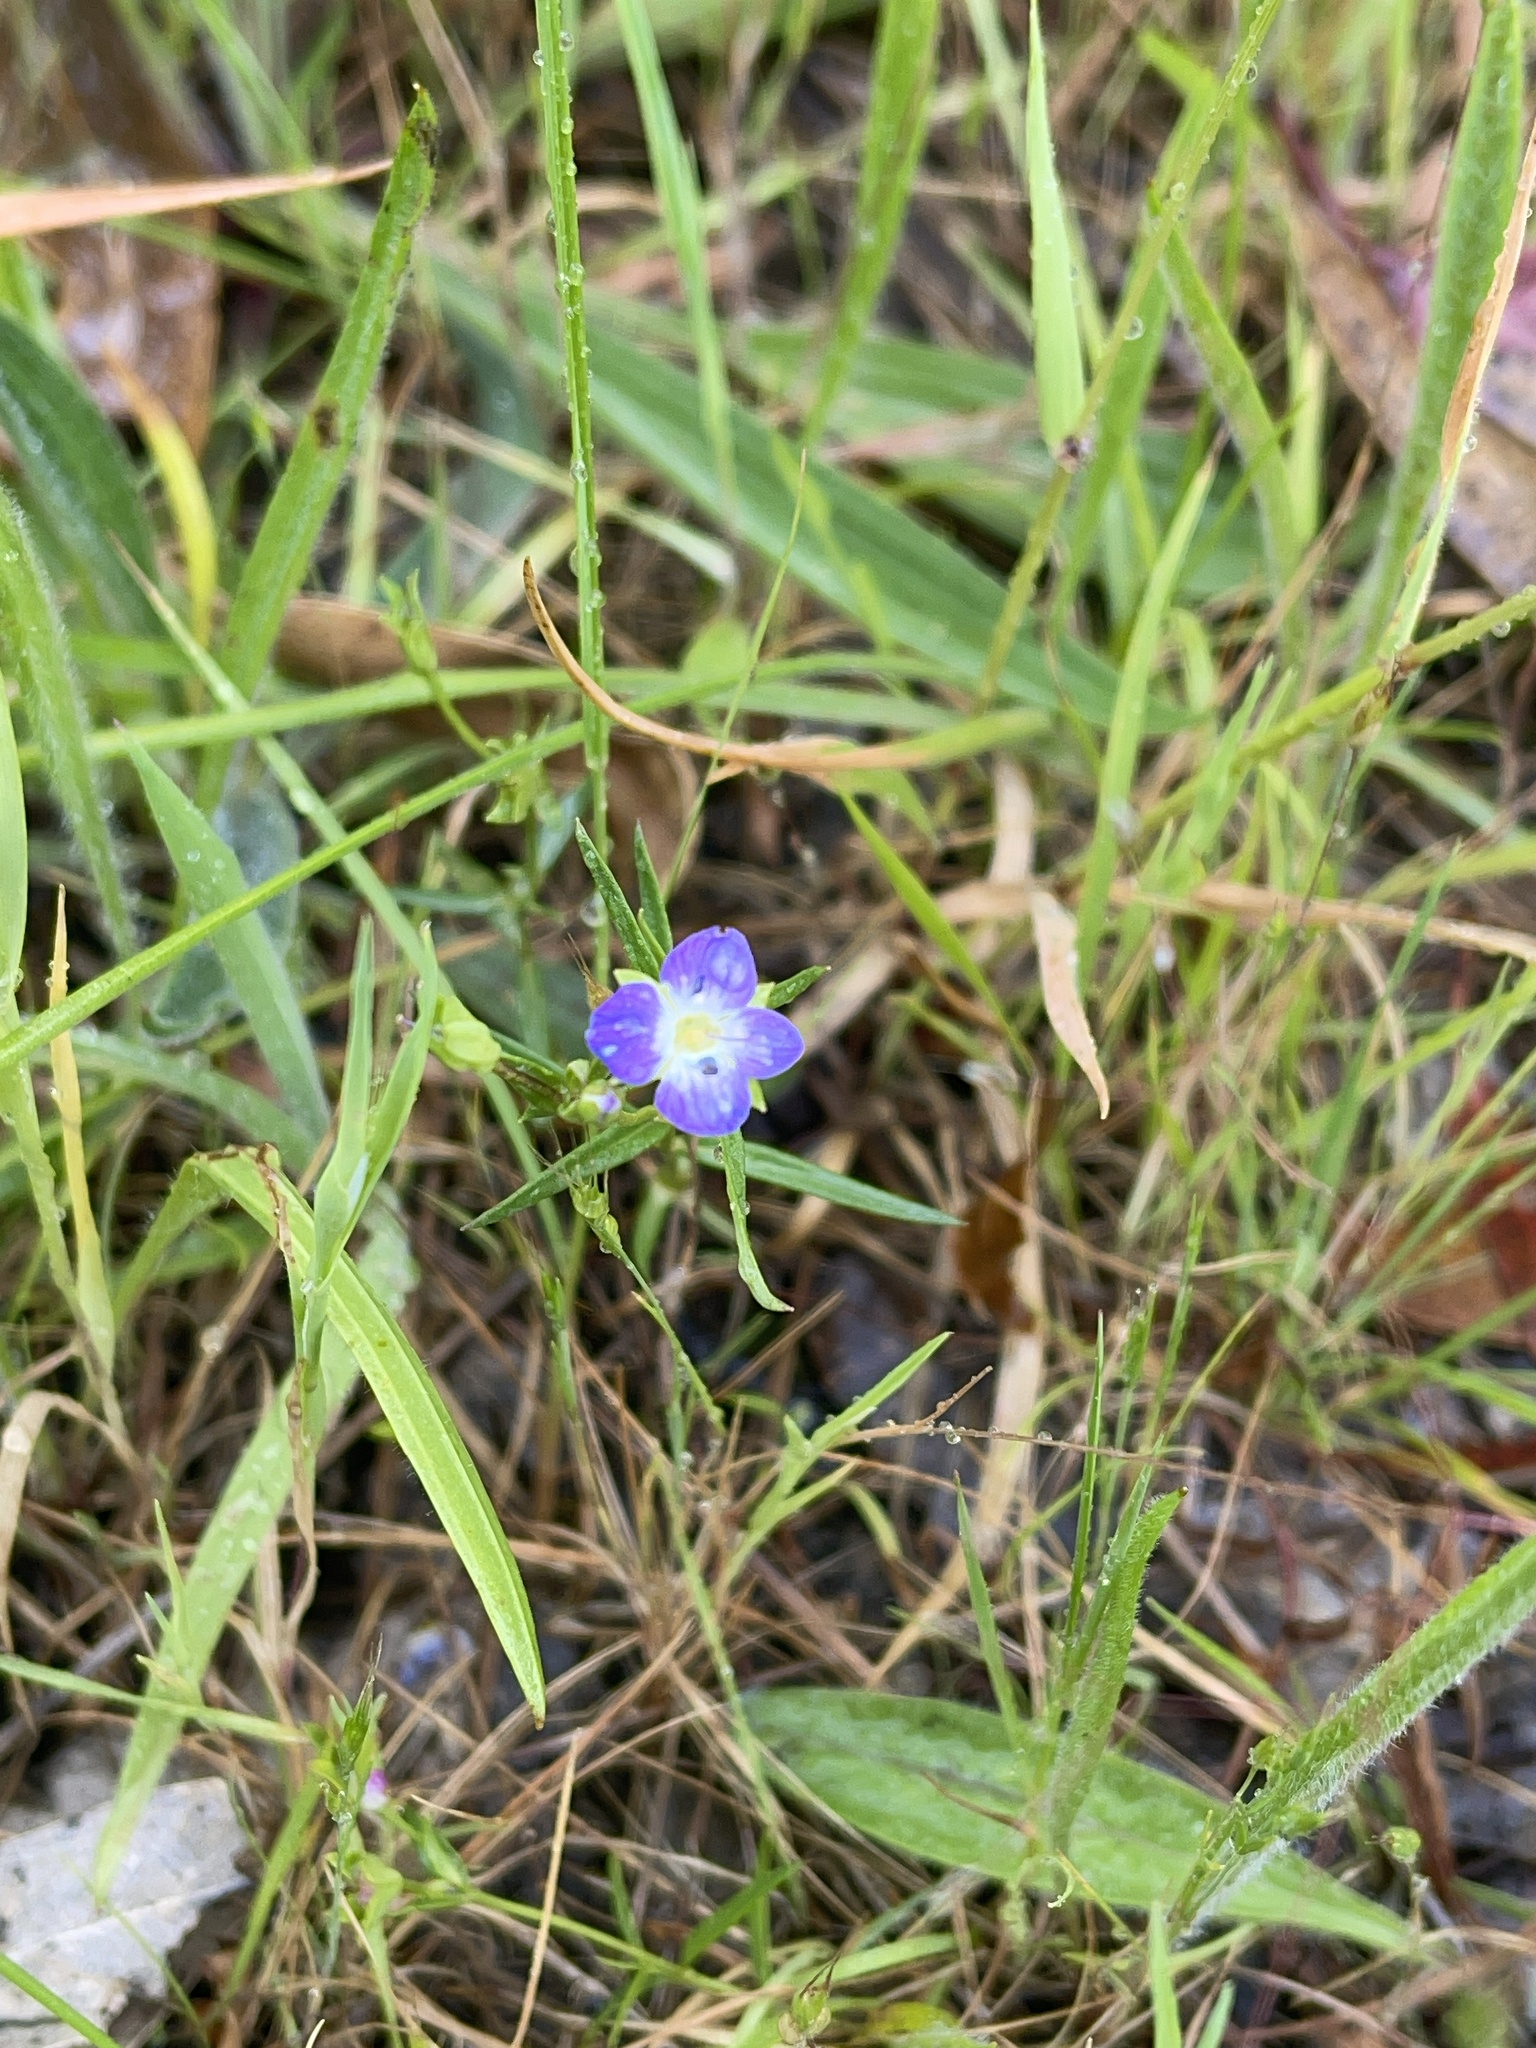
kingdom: Plantae
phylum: Tracheophyta
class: Magnoliopsida
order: Lamiales
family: Plantaginaceae
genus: Veronica
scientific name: Veronica gracilis
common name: Slender speedwell
